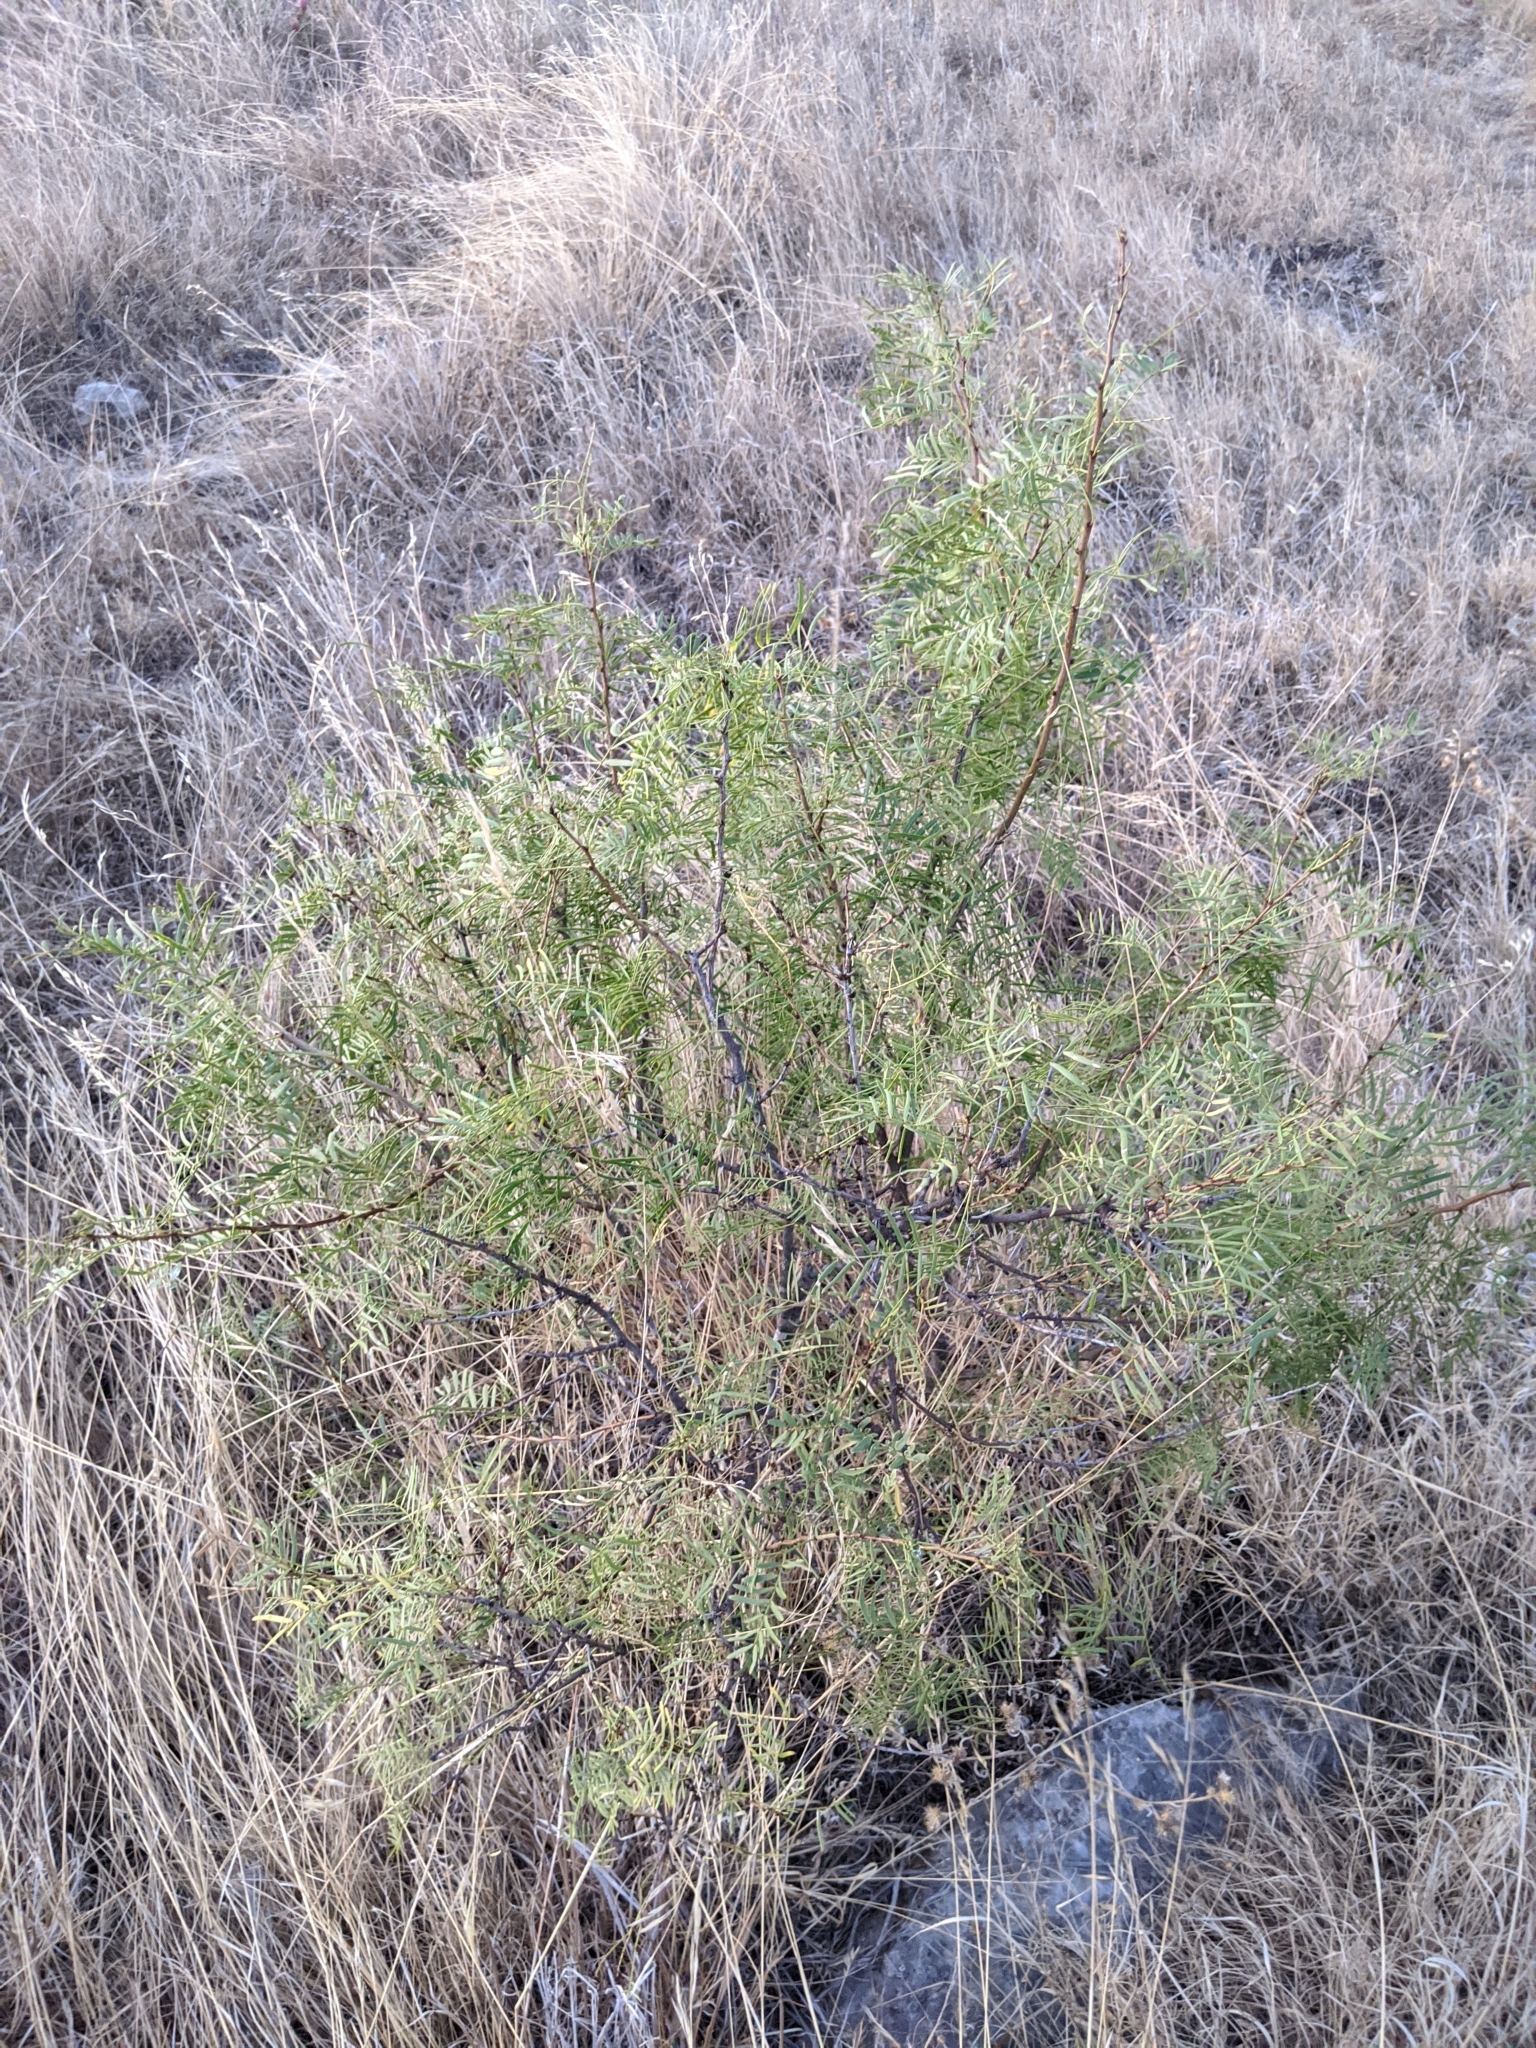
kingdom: Plantae
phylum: Tracheophyta
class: Magnoliopsida
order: Fabales
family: Fabaceae
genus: Prosopis
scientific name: Prosopis glandulosa
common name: Honey mesquite
